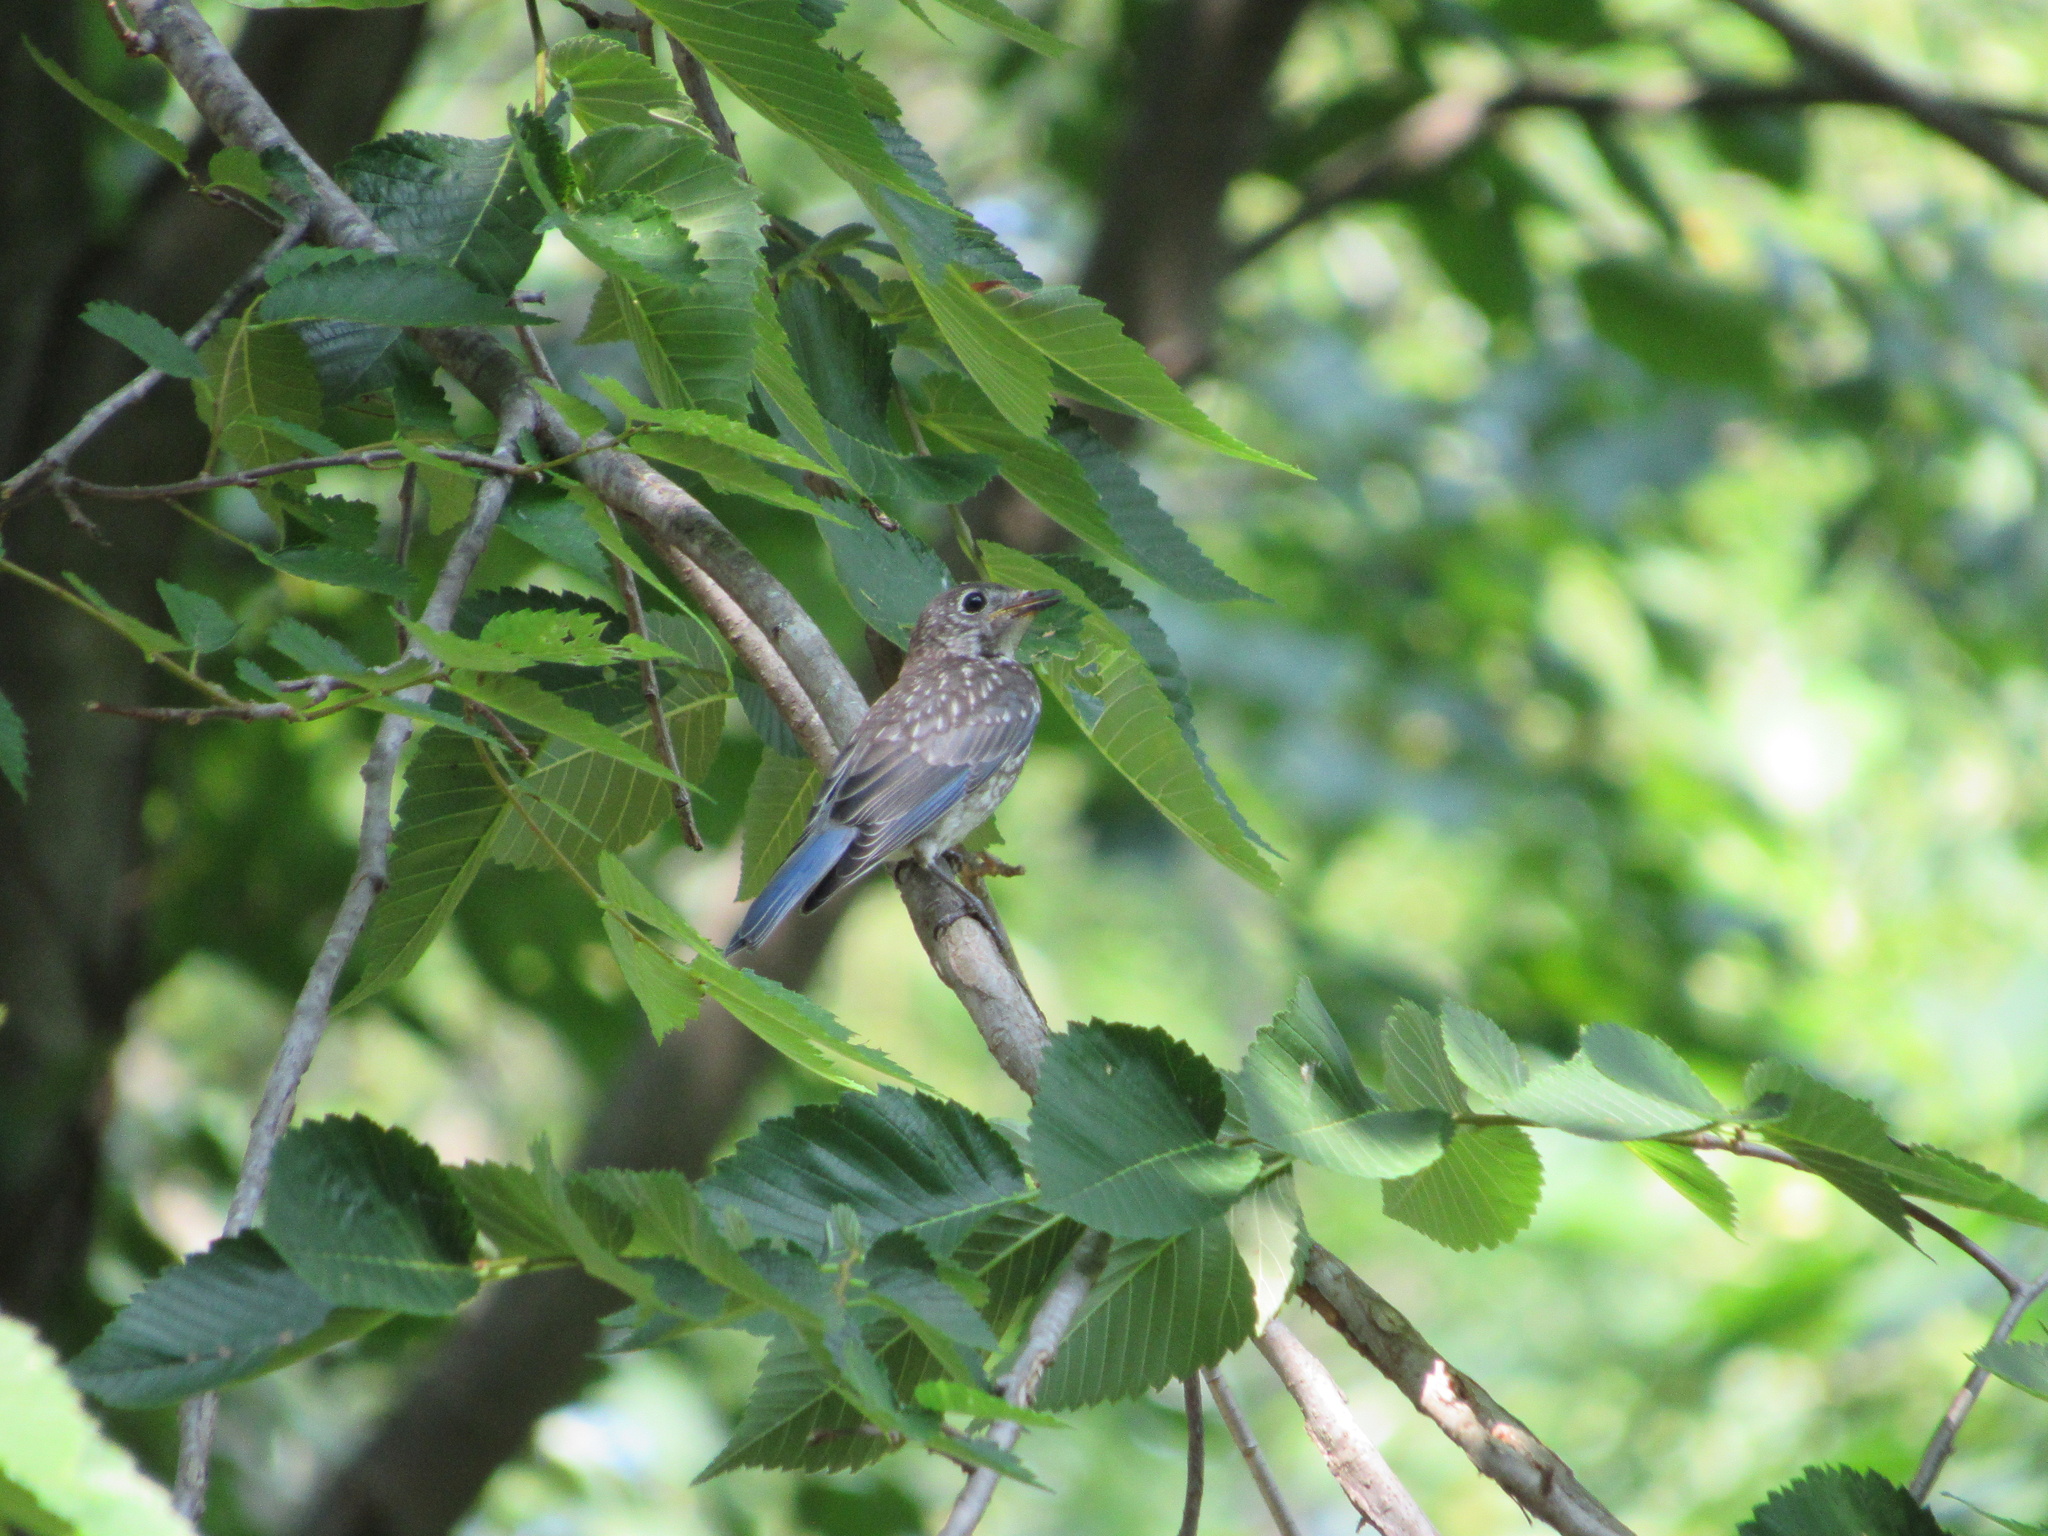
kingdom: Animalia
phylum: Chordata
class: Aves
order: Passeriformes
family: Turdidae
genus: Sialia
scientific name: Sialia sialis
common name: Eastern bluebird
